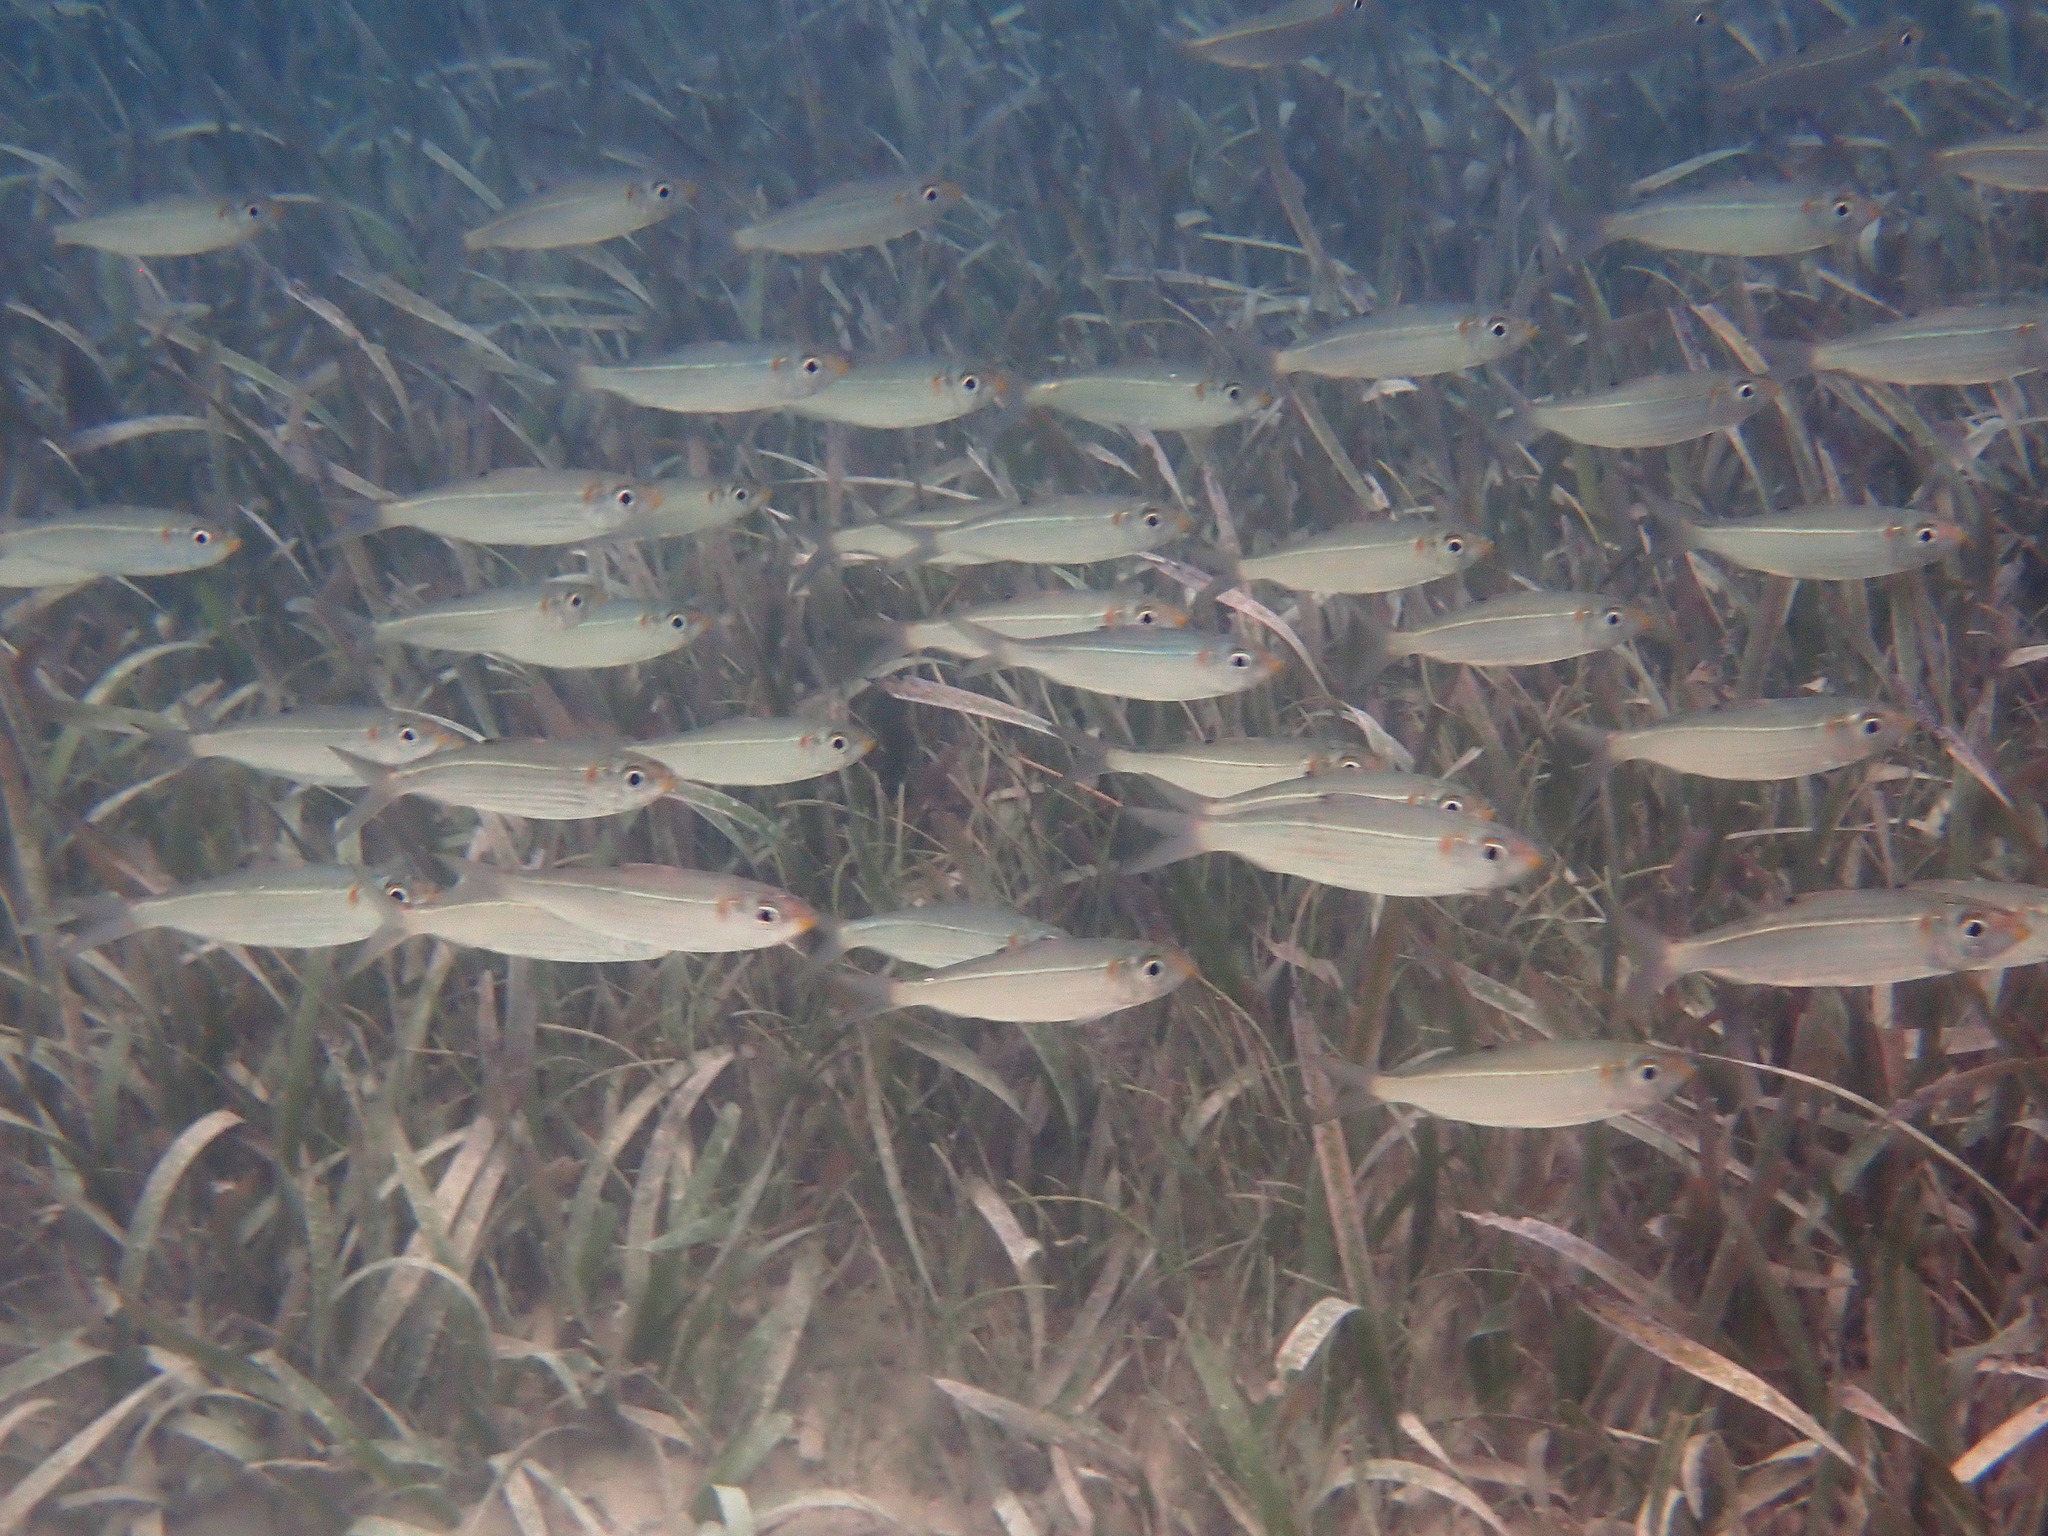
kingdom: Animalia
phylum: Chordata
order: Clupeiformes
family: Clupeidae
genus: Harengula
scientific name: Harengula humeralis
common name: Red-ear pilchard
